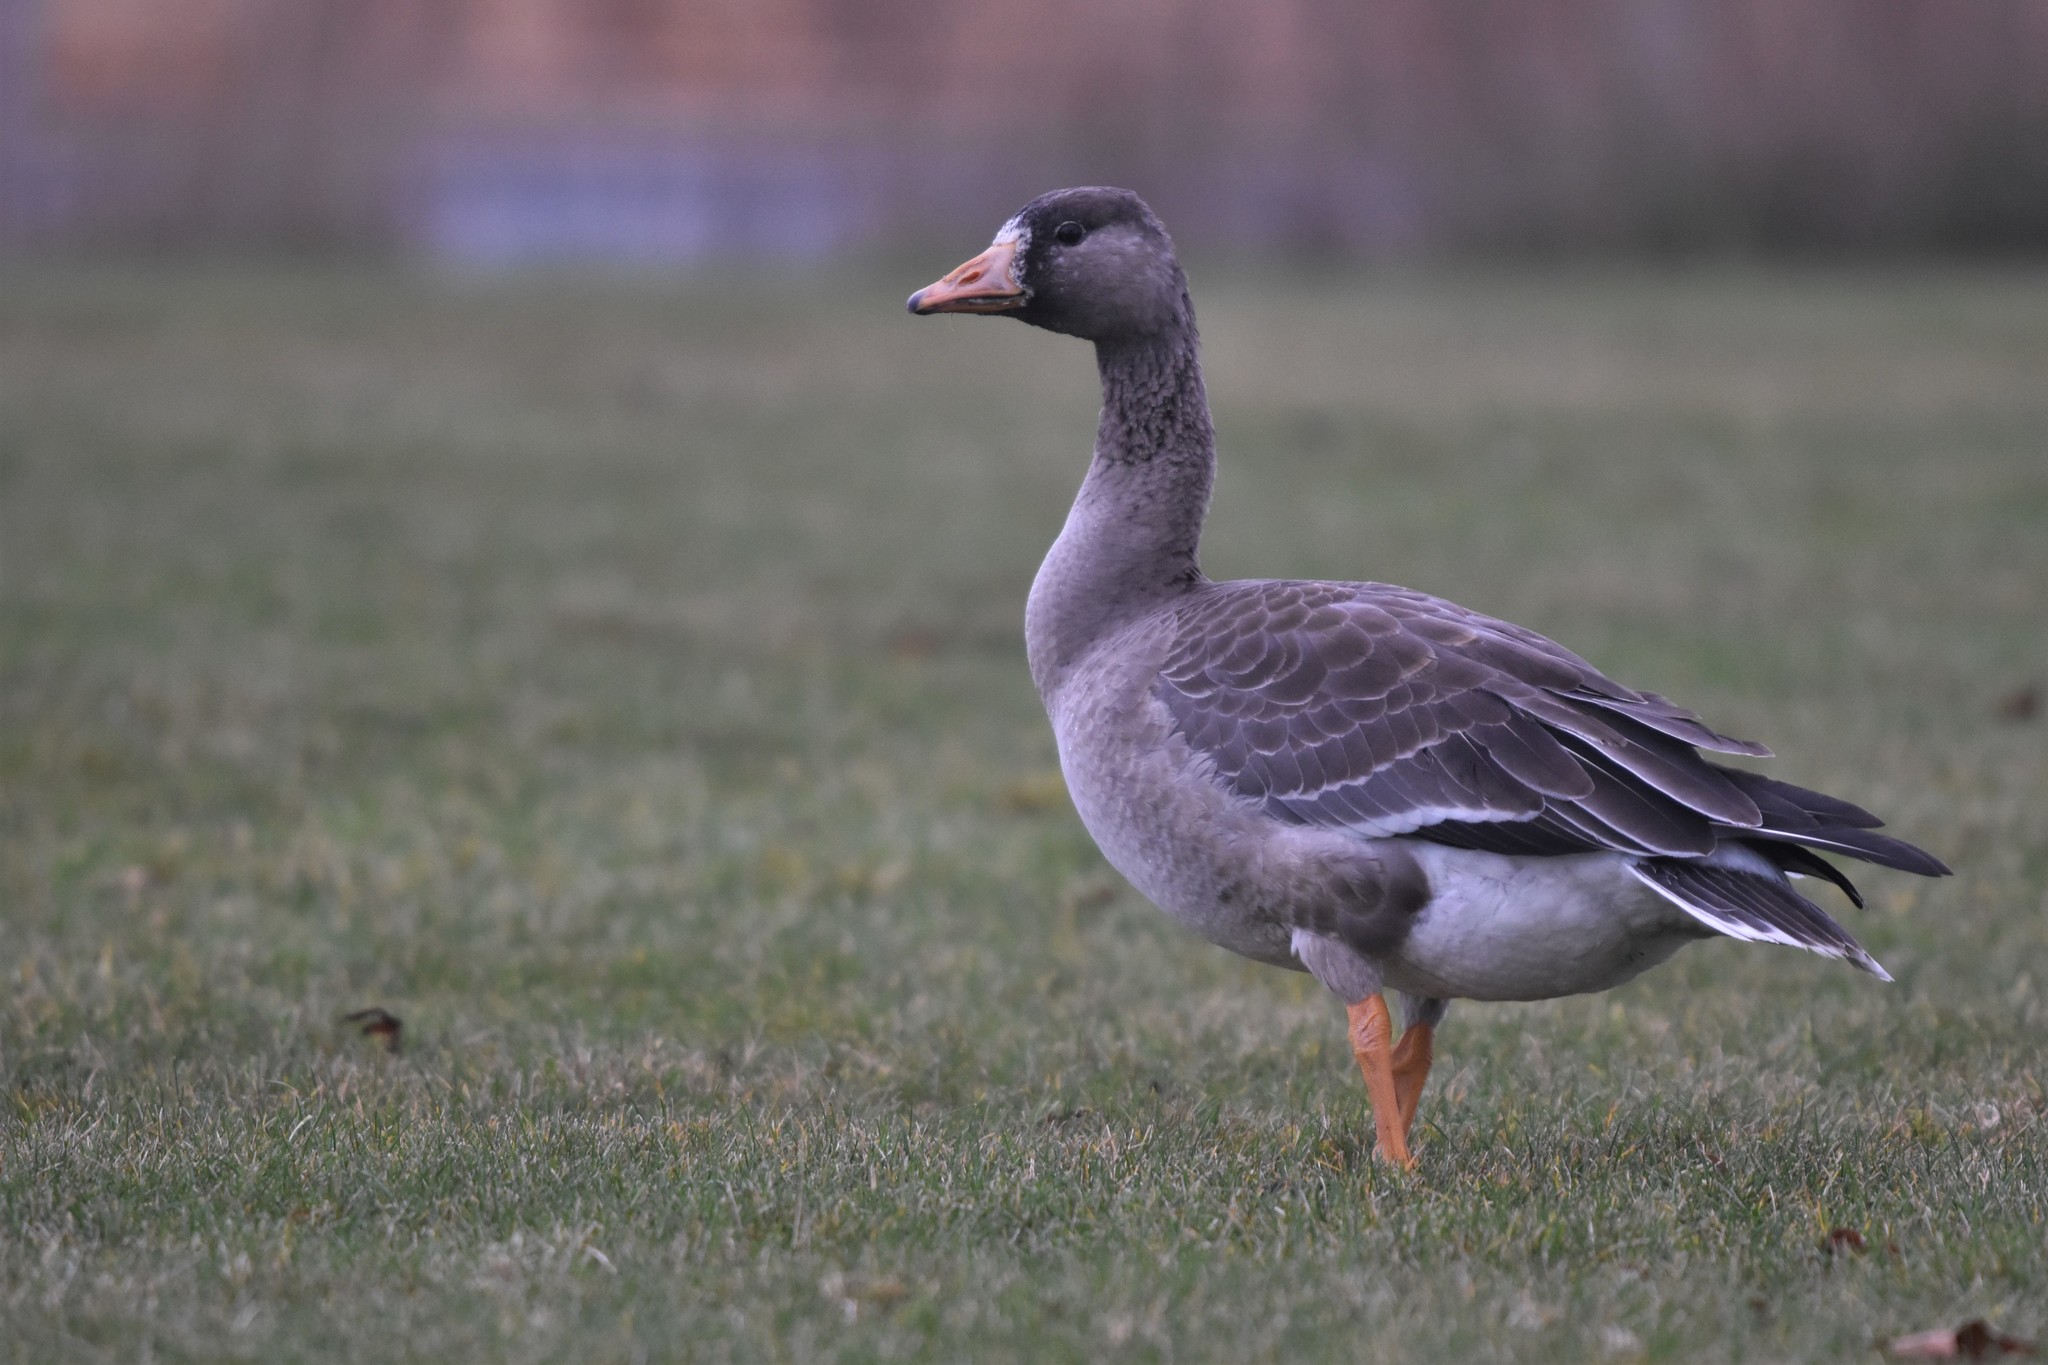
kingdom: Animalia
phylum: Chordata
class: Aves
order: Anseriformes
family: Anatidae
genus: Anser
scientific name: Anser albifrons
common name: Greater white-fronted goose
